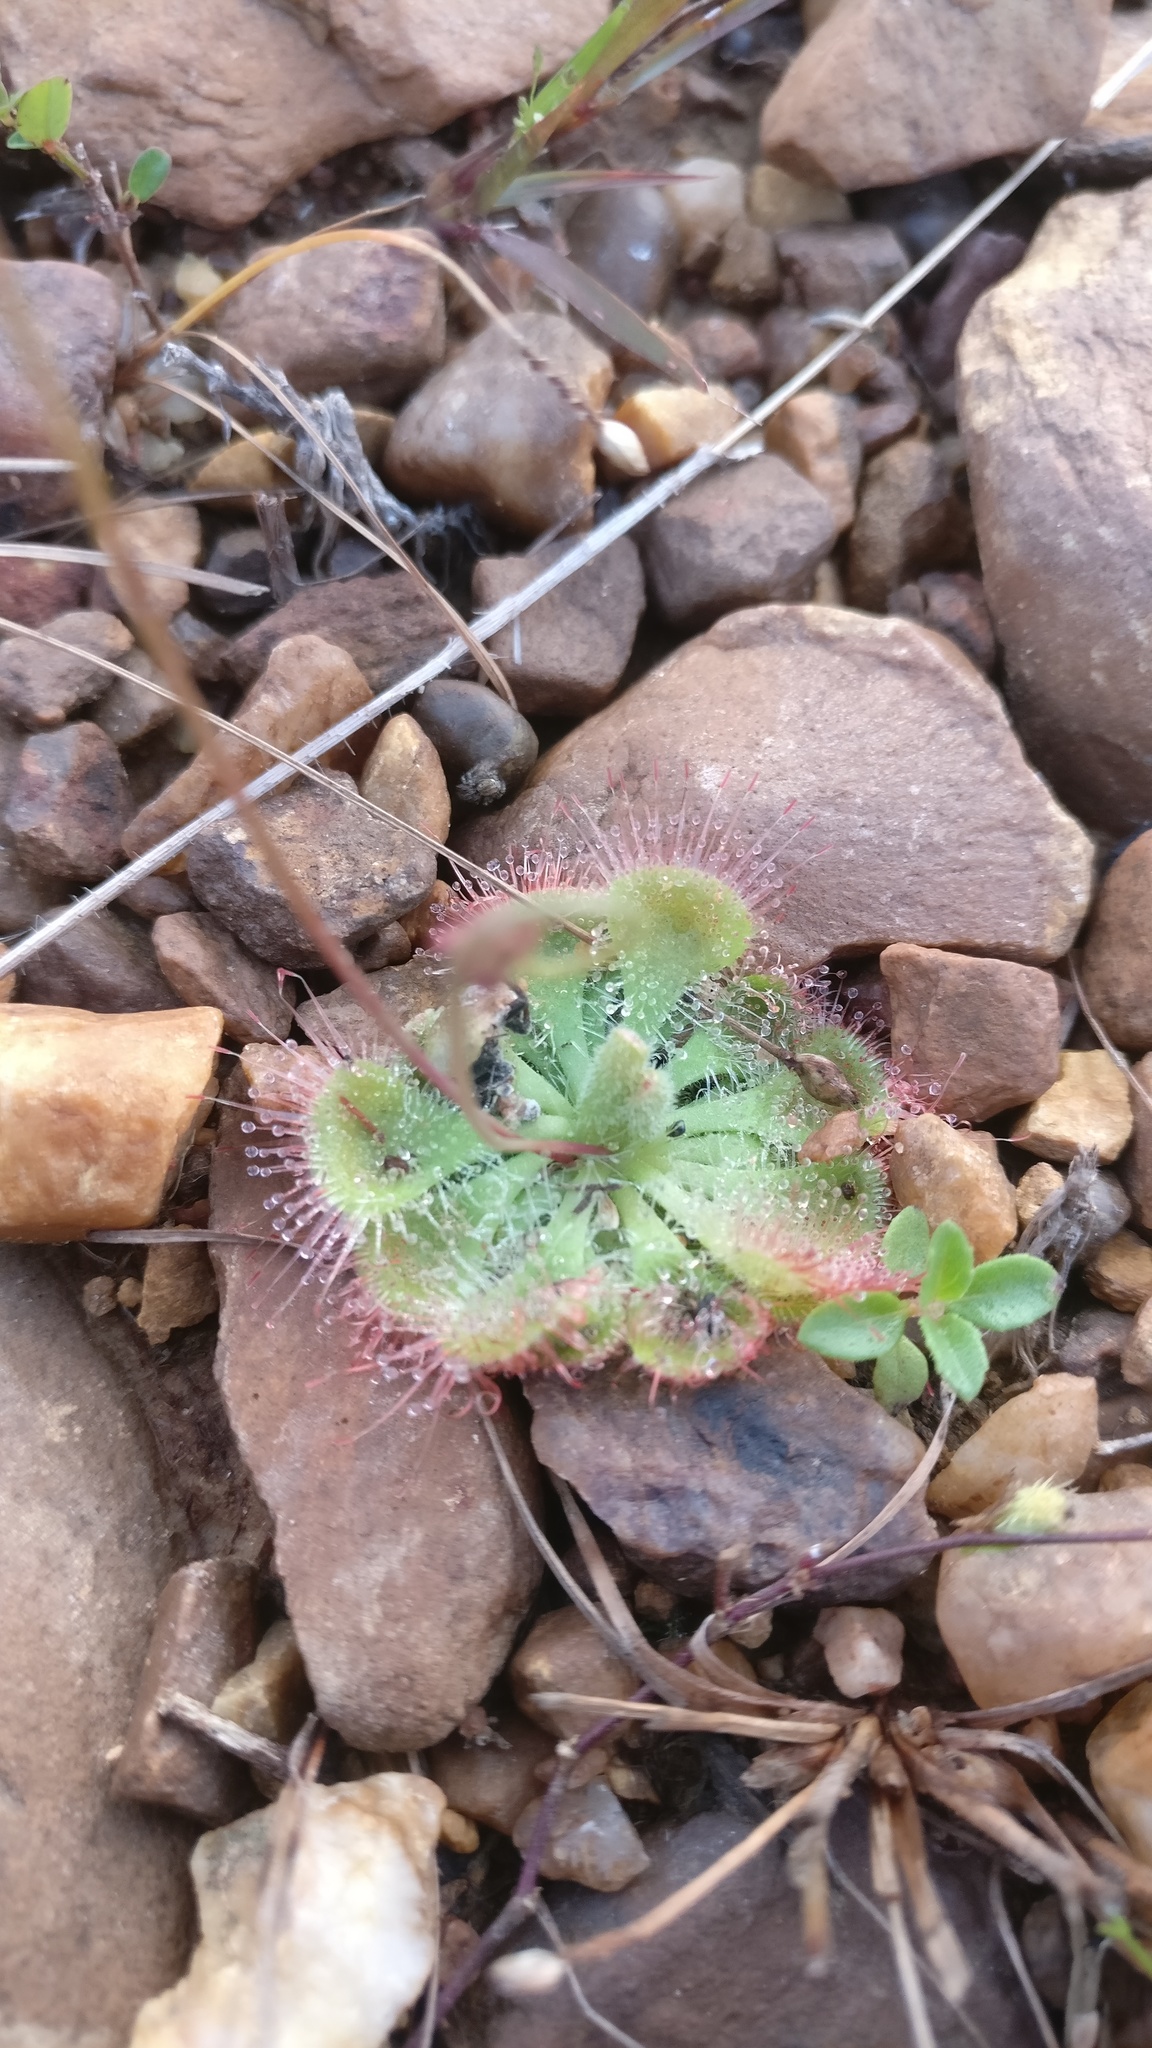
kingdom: Plantae
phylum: Tracheophyta
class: Magnoliopsida
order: Caryophyllales
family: Droseraceae
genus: Drosera
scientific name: Drosera spatulata
